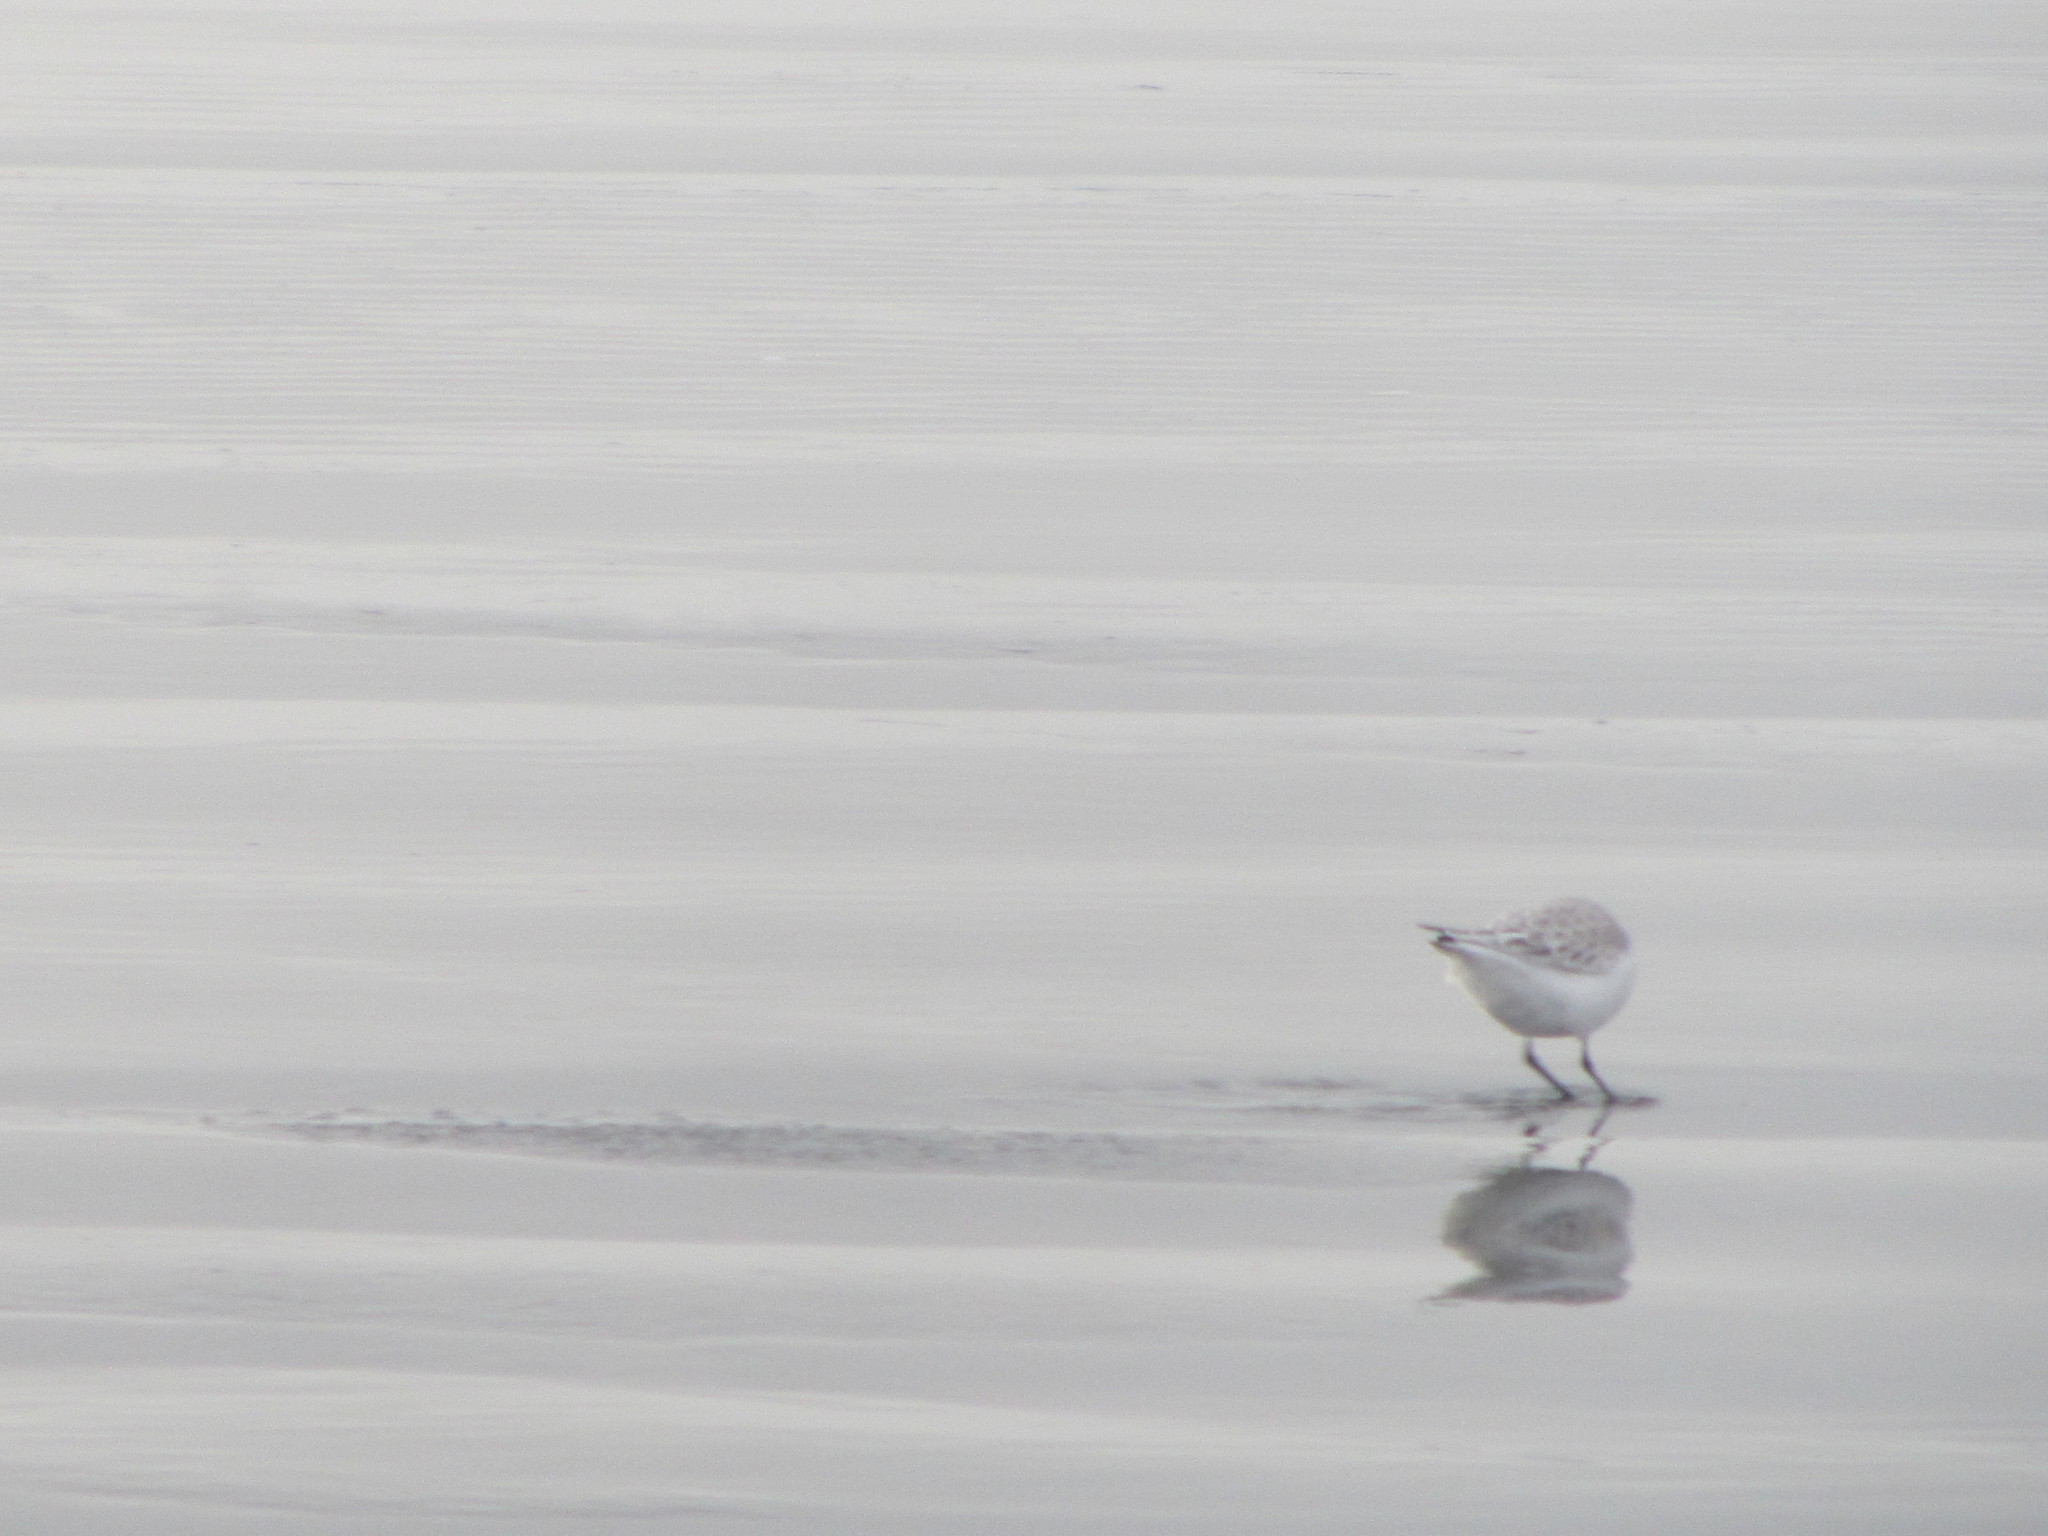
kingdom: Animalia
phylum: Chordata
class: Aves
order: Charadriiformes
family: Scolopacidae
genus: Calidris
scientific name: Calidris alba
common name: Sanderling
